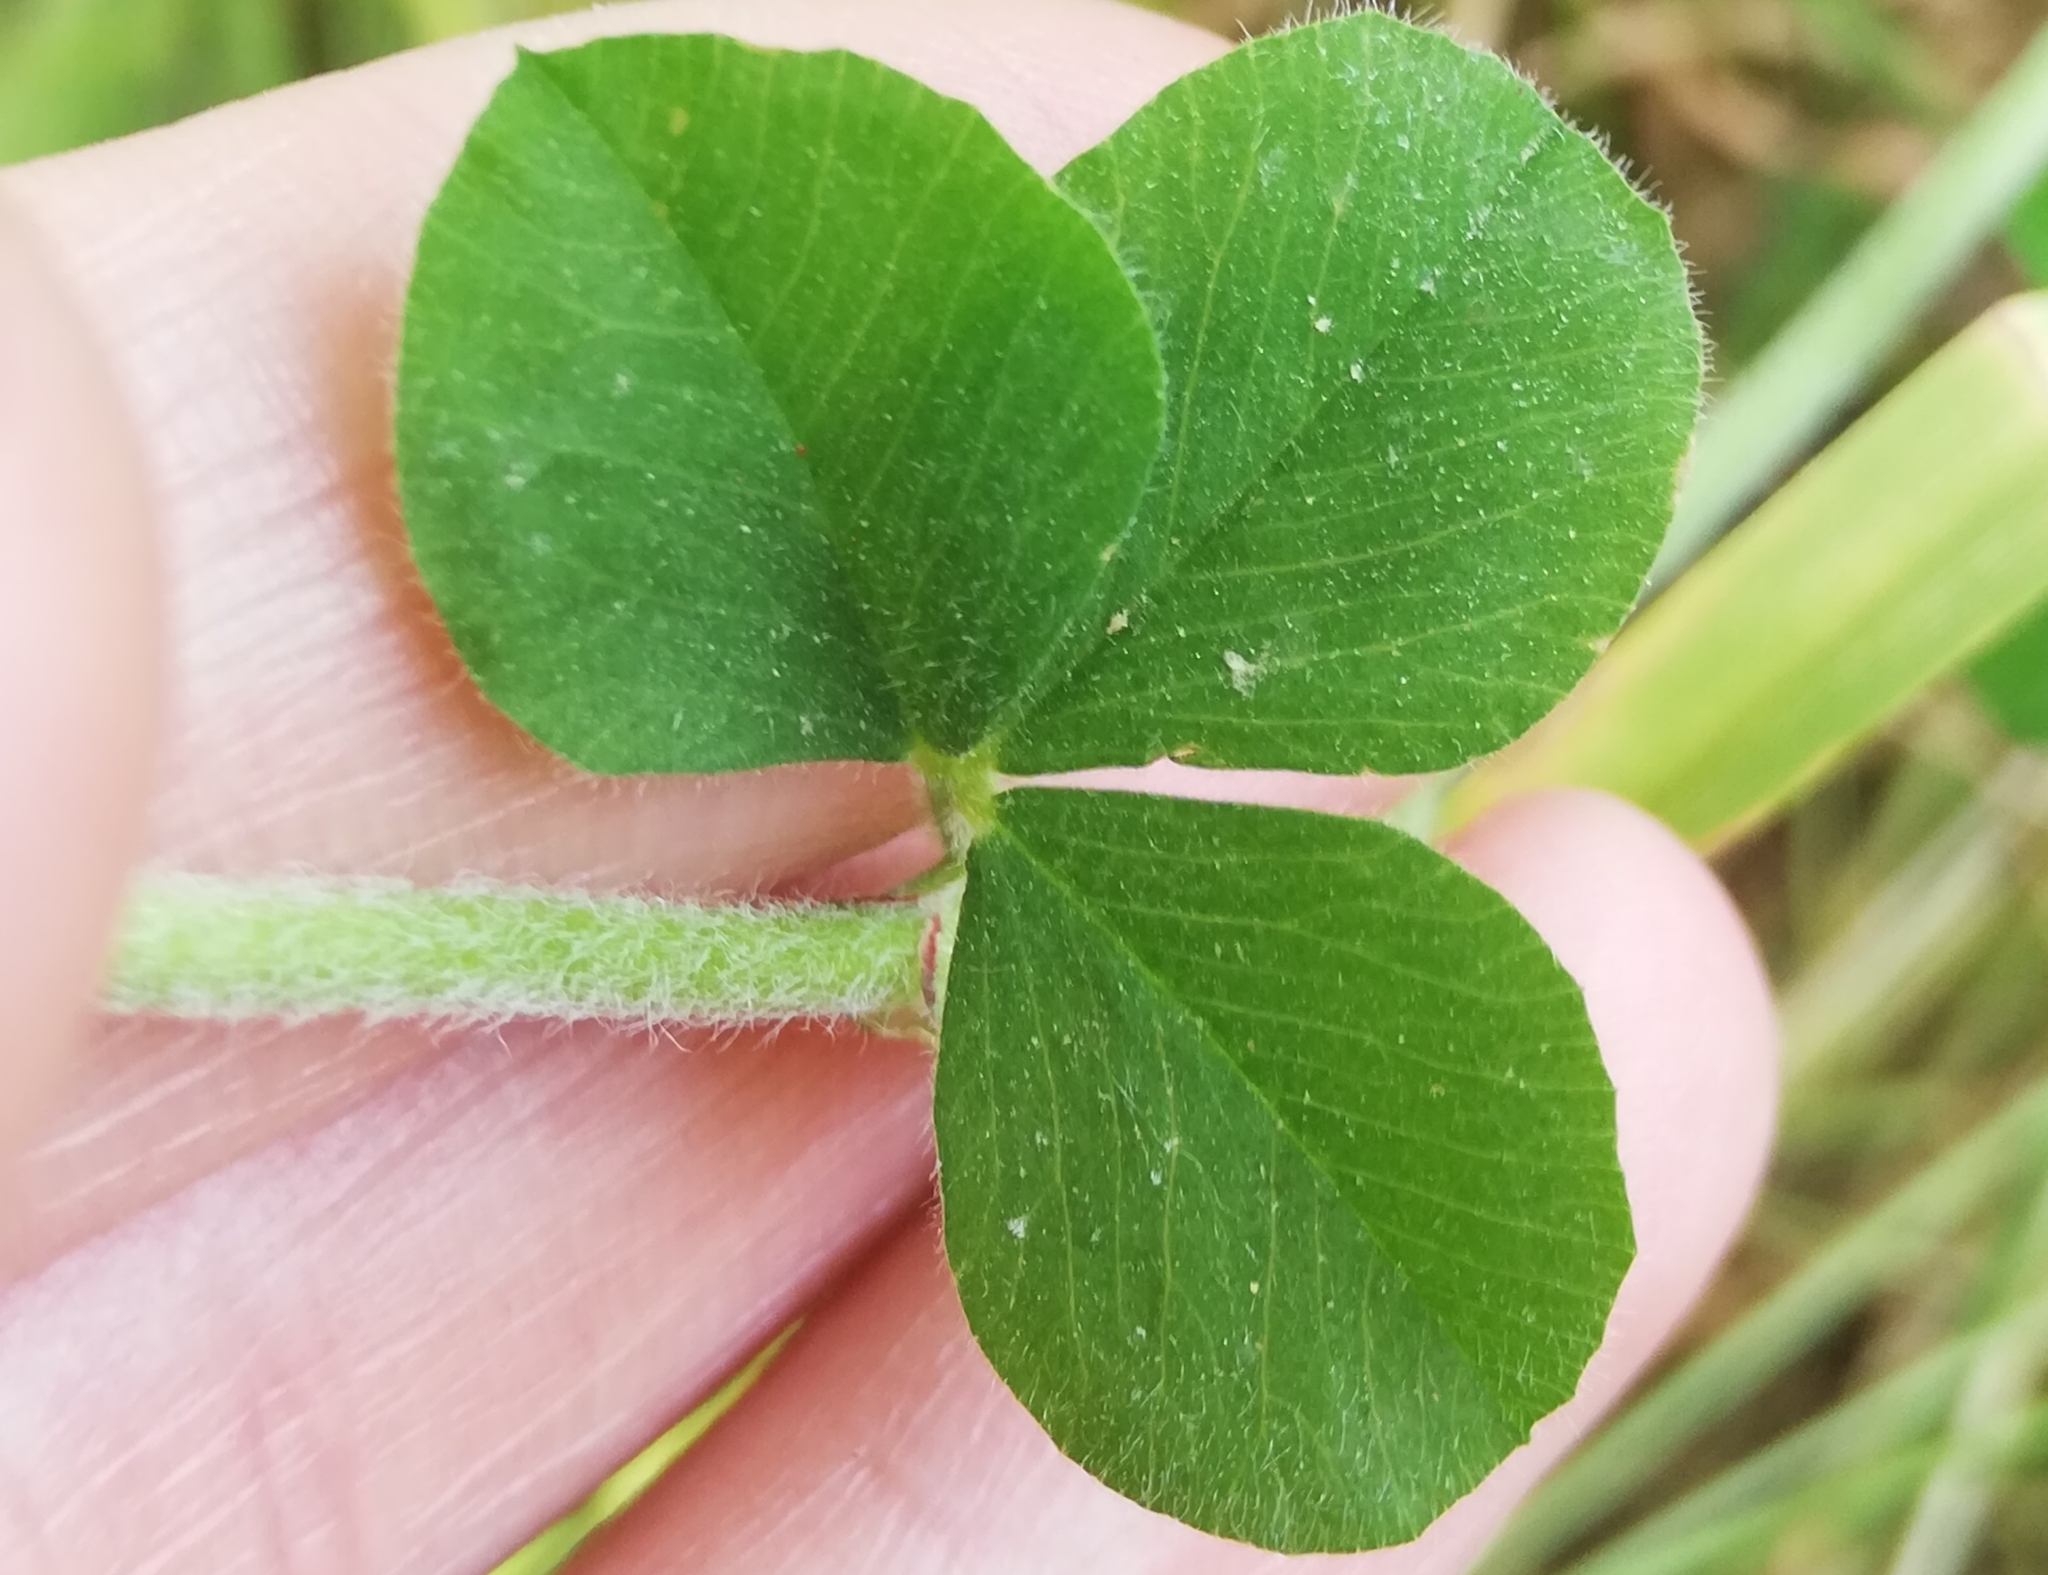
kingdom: Plantae
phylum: Tracheophyta
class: Magnoliopsida
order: Fabales
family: Fabaceae
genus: Trifolium
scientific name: Trifolium incarnatum
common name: Crimson clover
